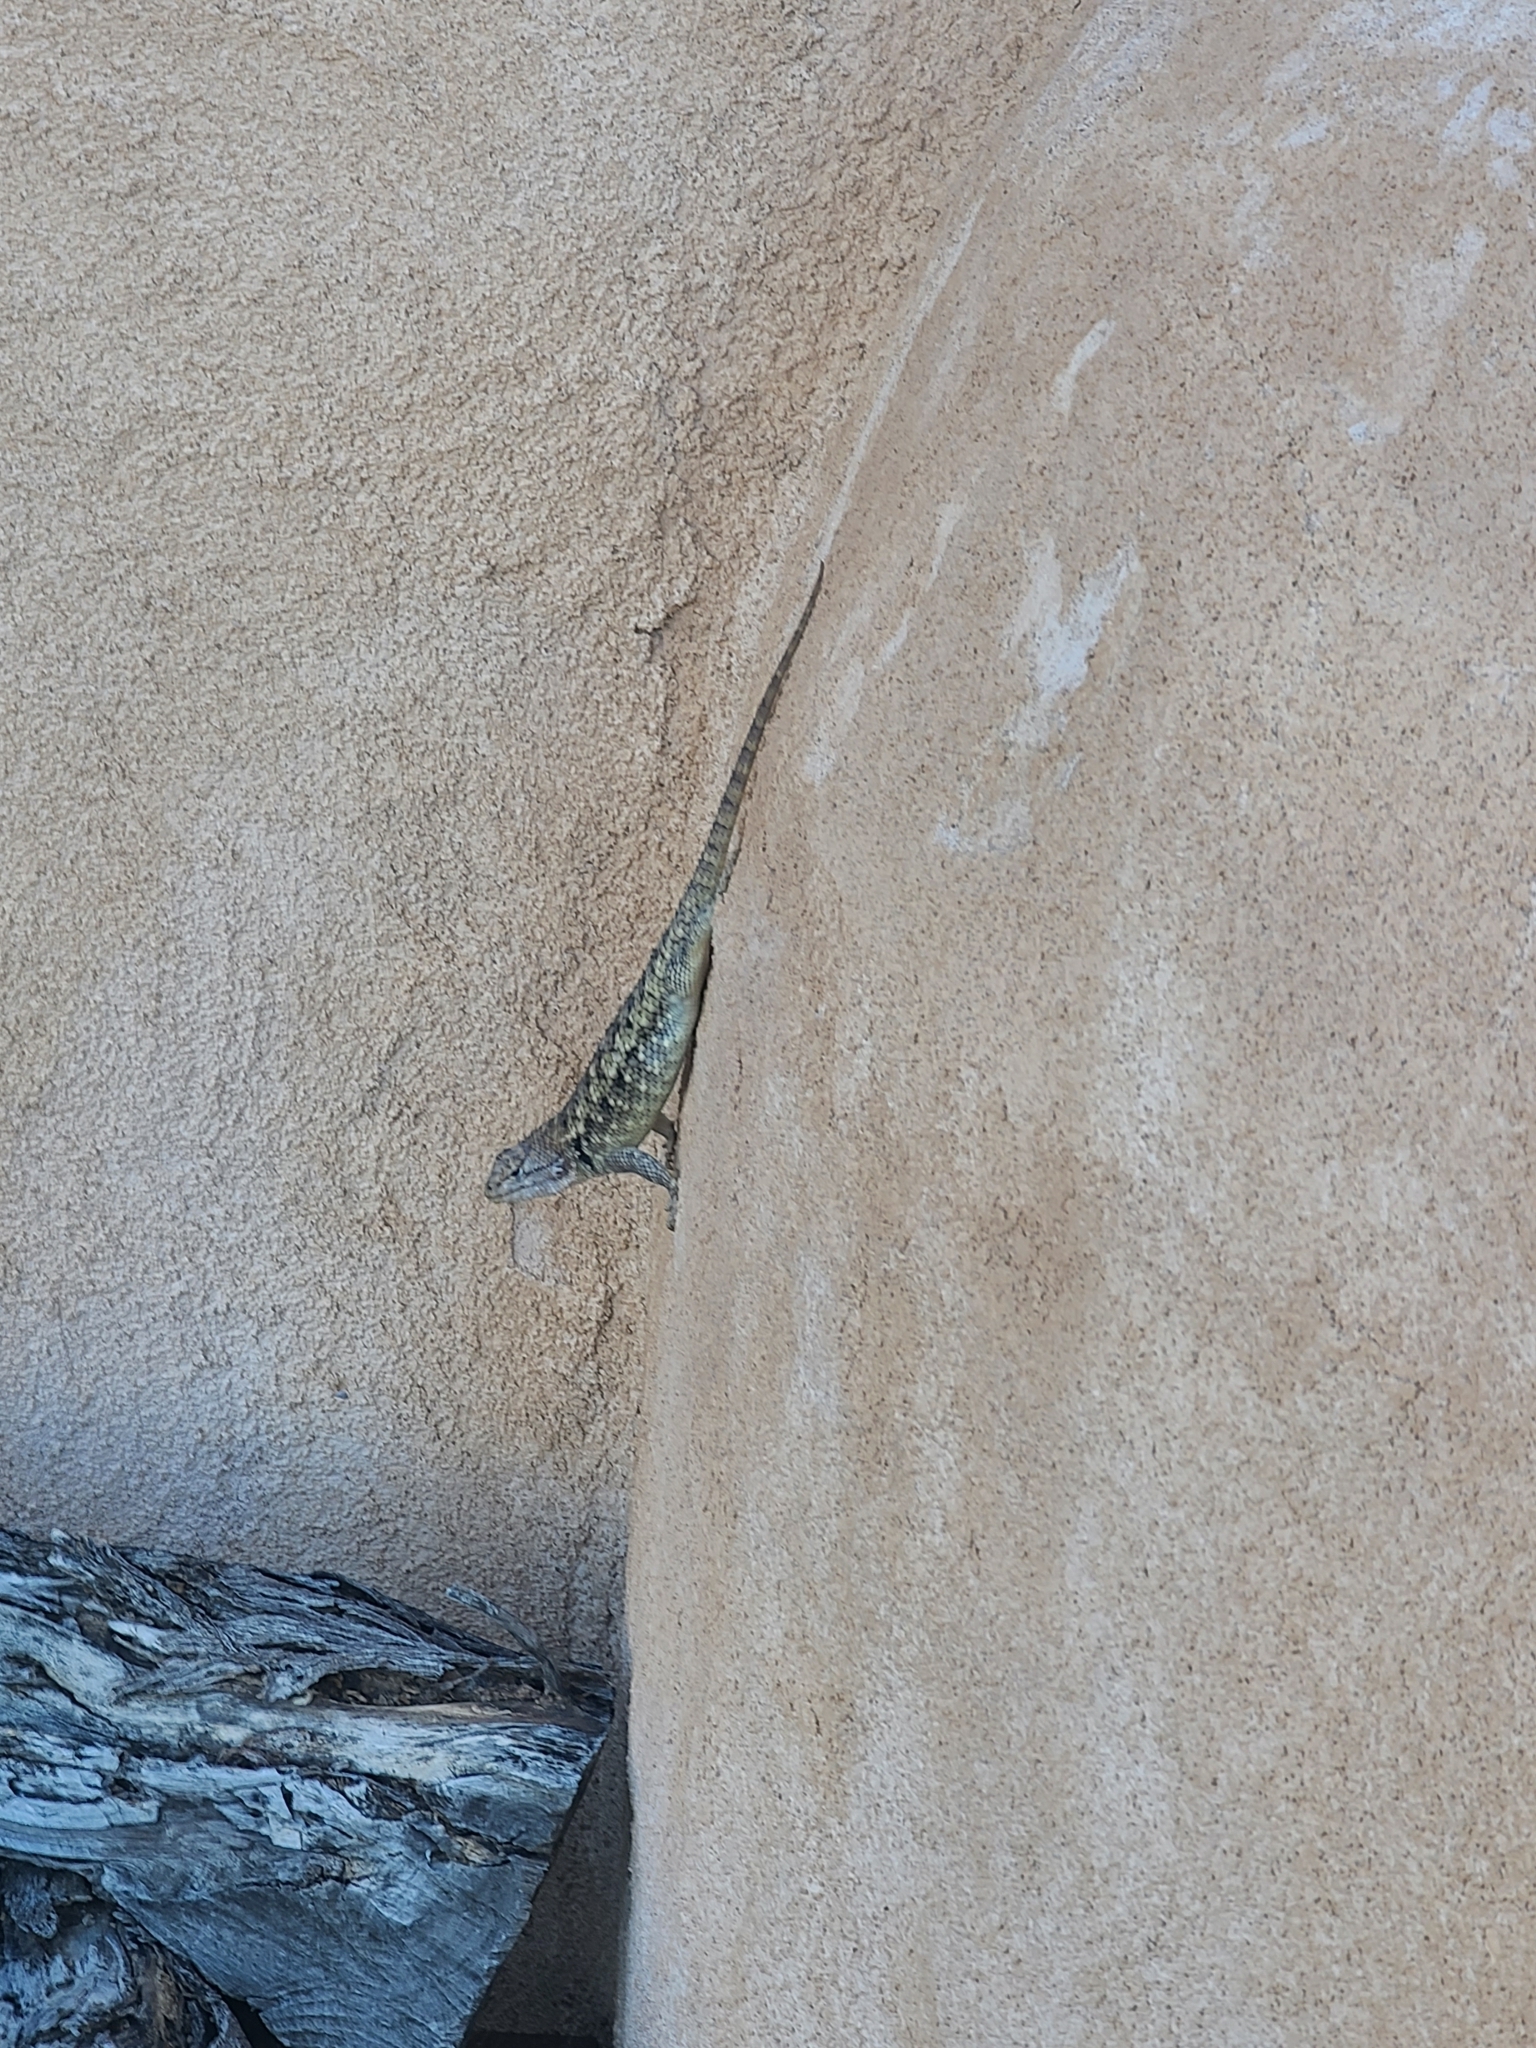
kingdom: Animalia
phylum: Chordata
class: Squamata
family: Phrynosomatidae
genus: Sceloporus
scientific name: Sceloporus bimaculosus
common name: Twin-spotted spiny lizard
